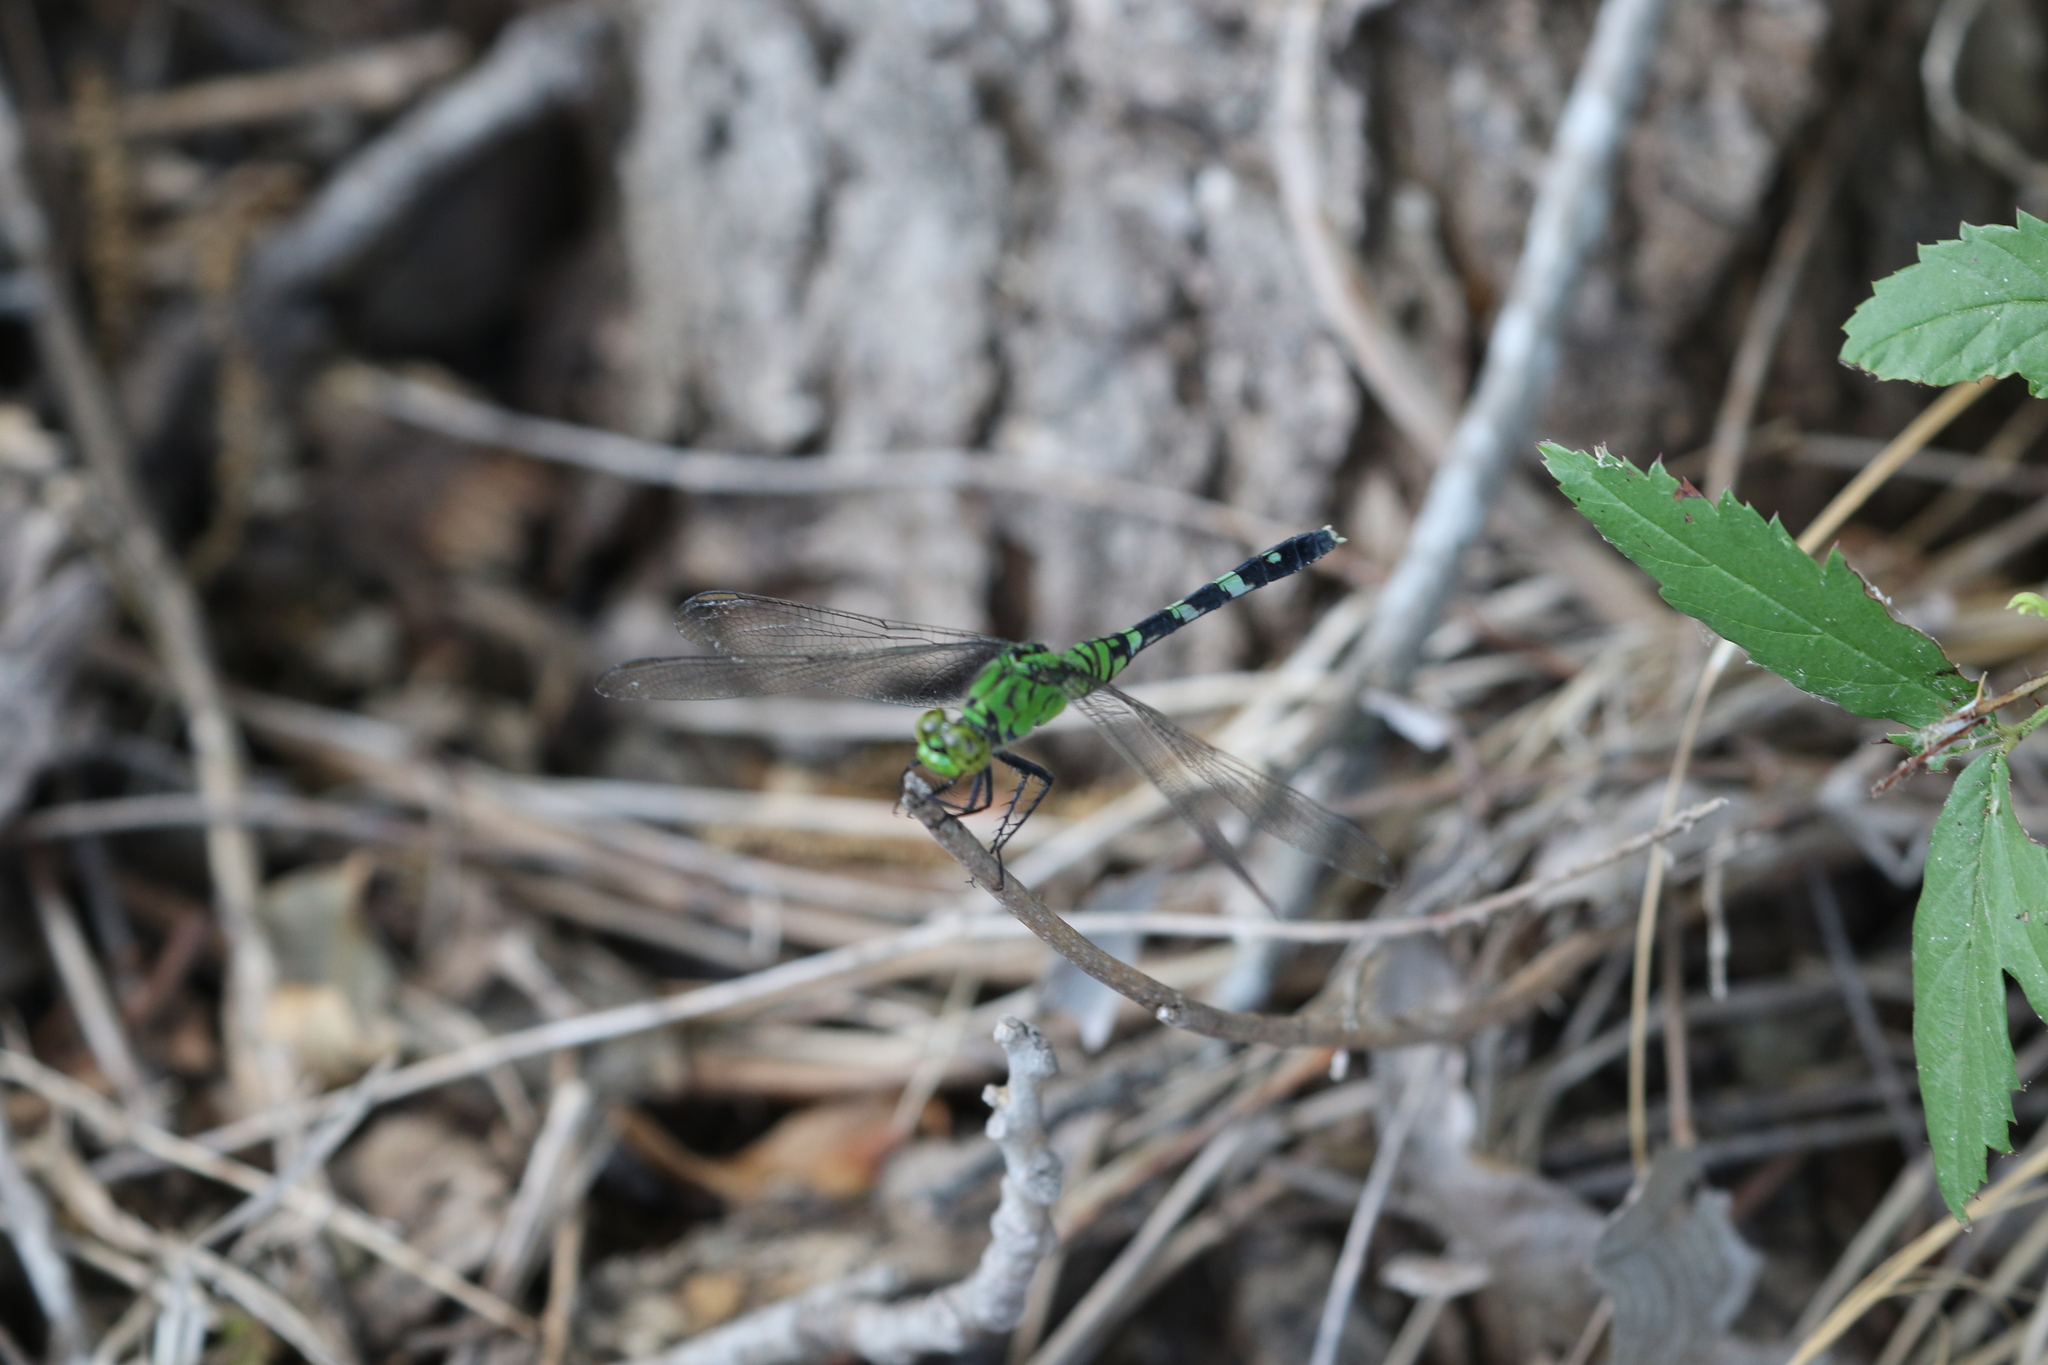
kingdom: Animalia
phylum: Arthropoda
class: Insecta
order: Odonata
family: Libellulidae
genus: Erythemis
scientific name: Erythemis simplicicollis
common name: Eastern pondhawk
